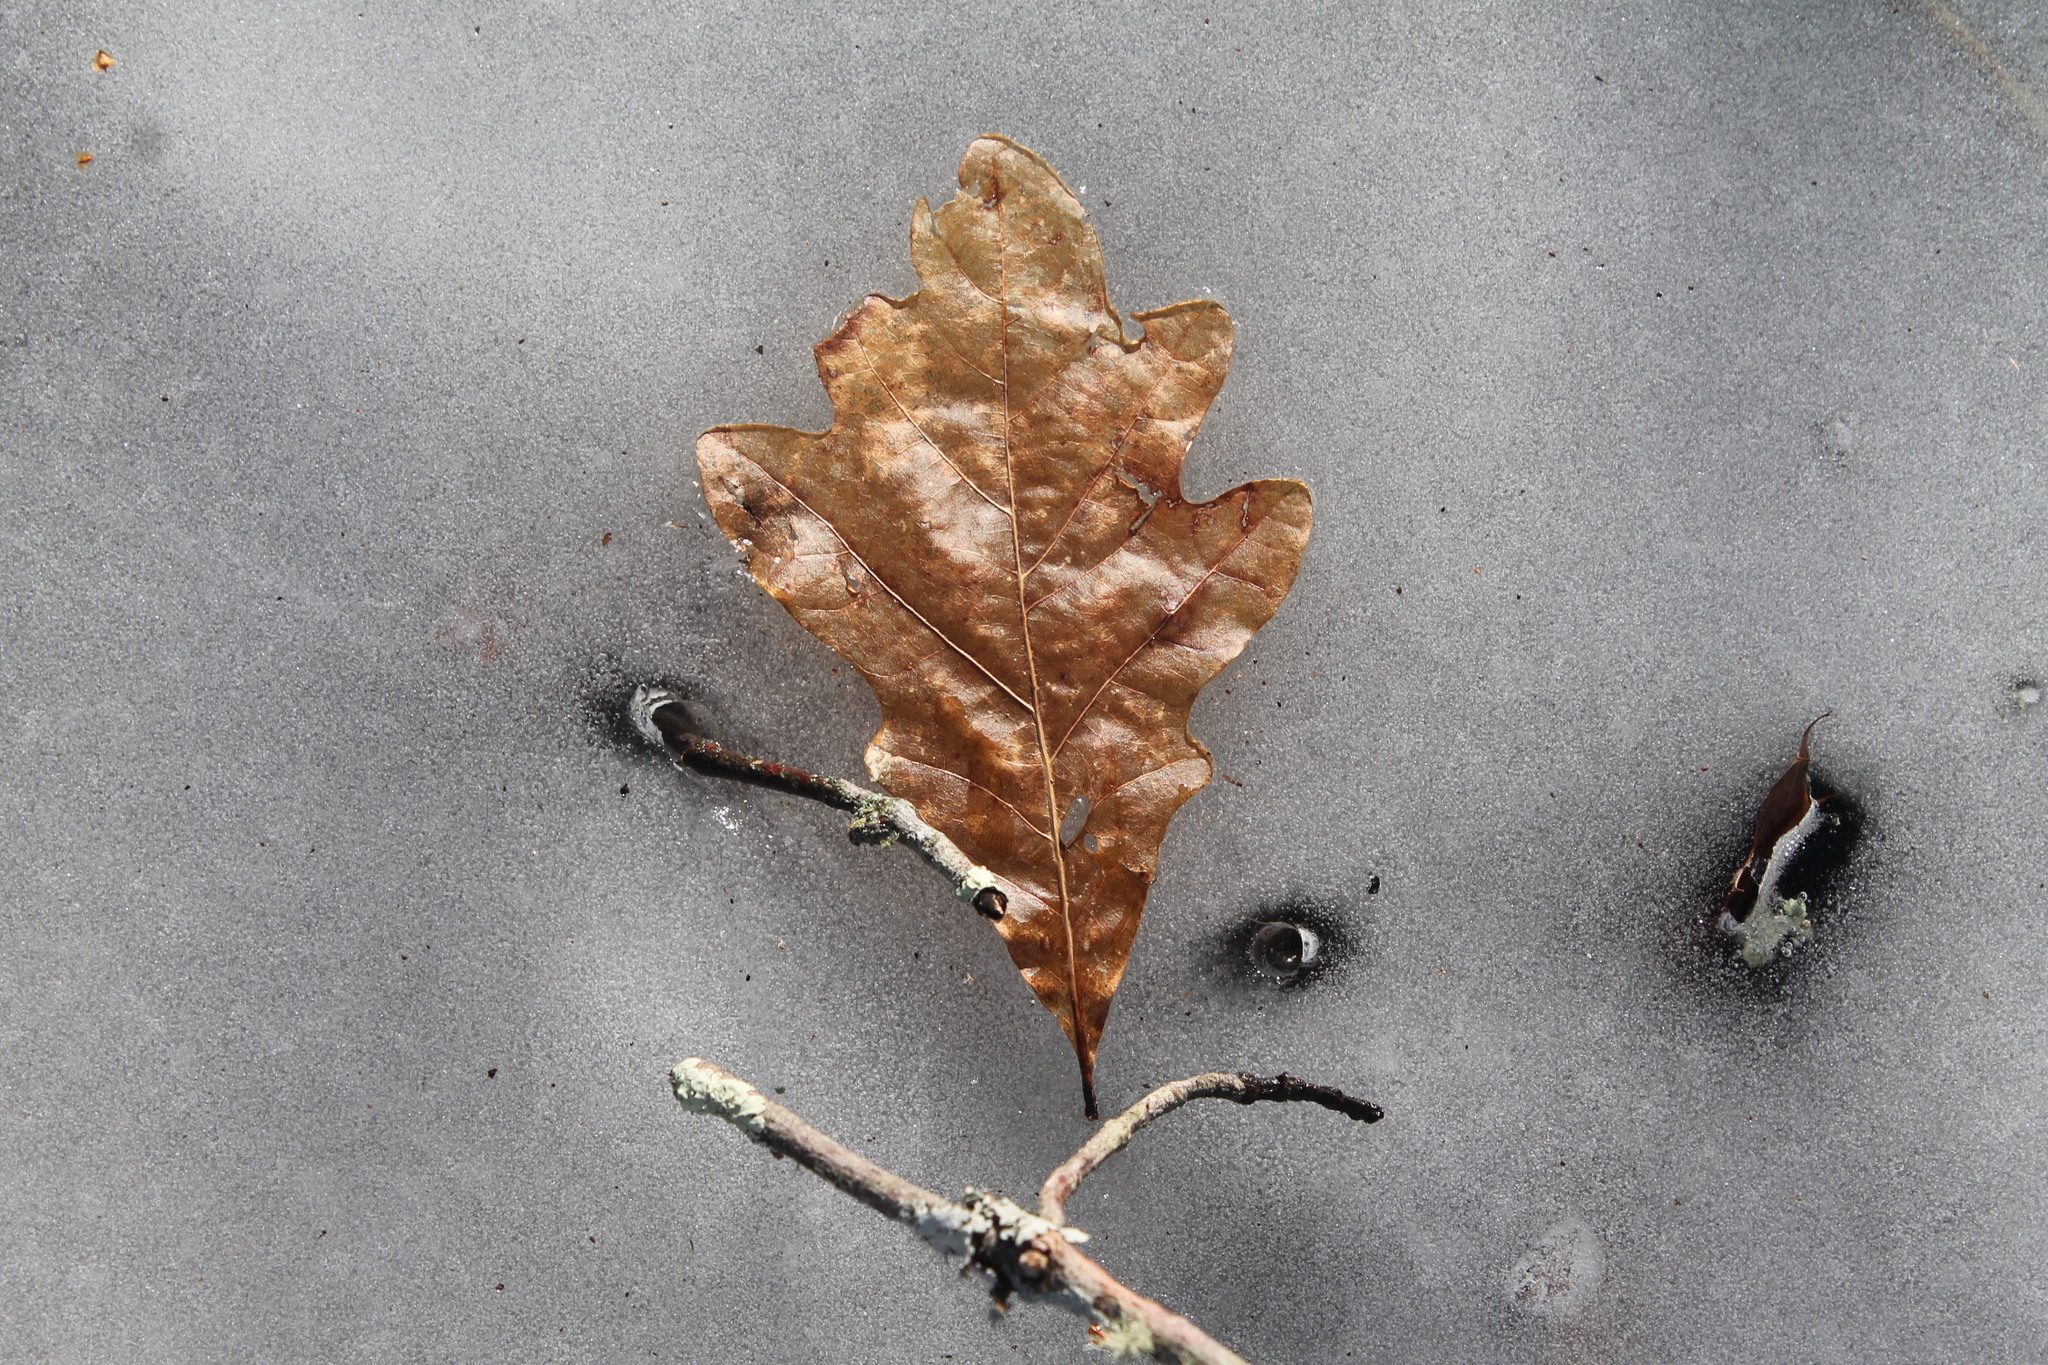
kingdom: Plantae
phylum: Tracheophyta
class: Magnoliopsida
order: Fagales
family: Fagaceae
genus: Quercus
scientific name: Quercus alba
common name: White oak
